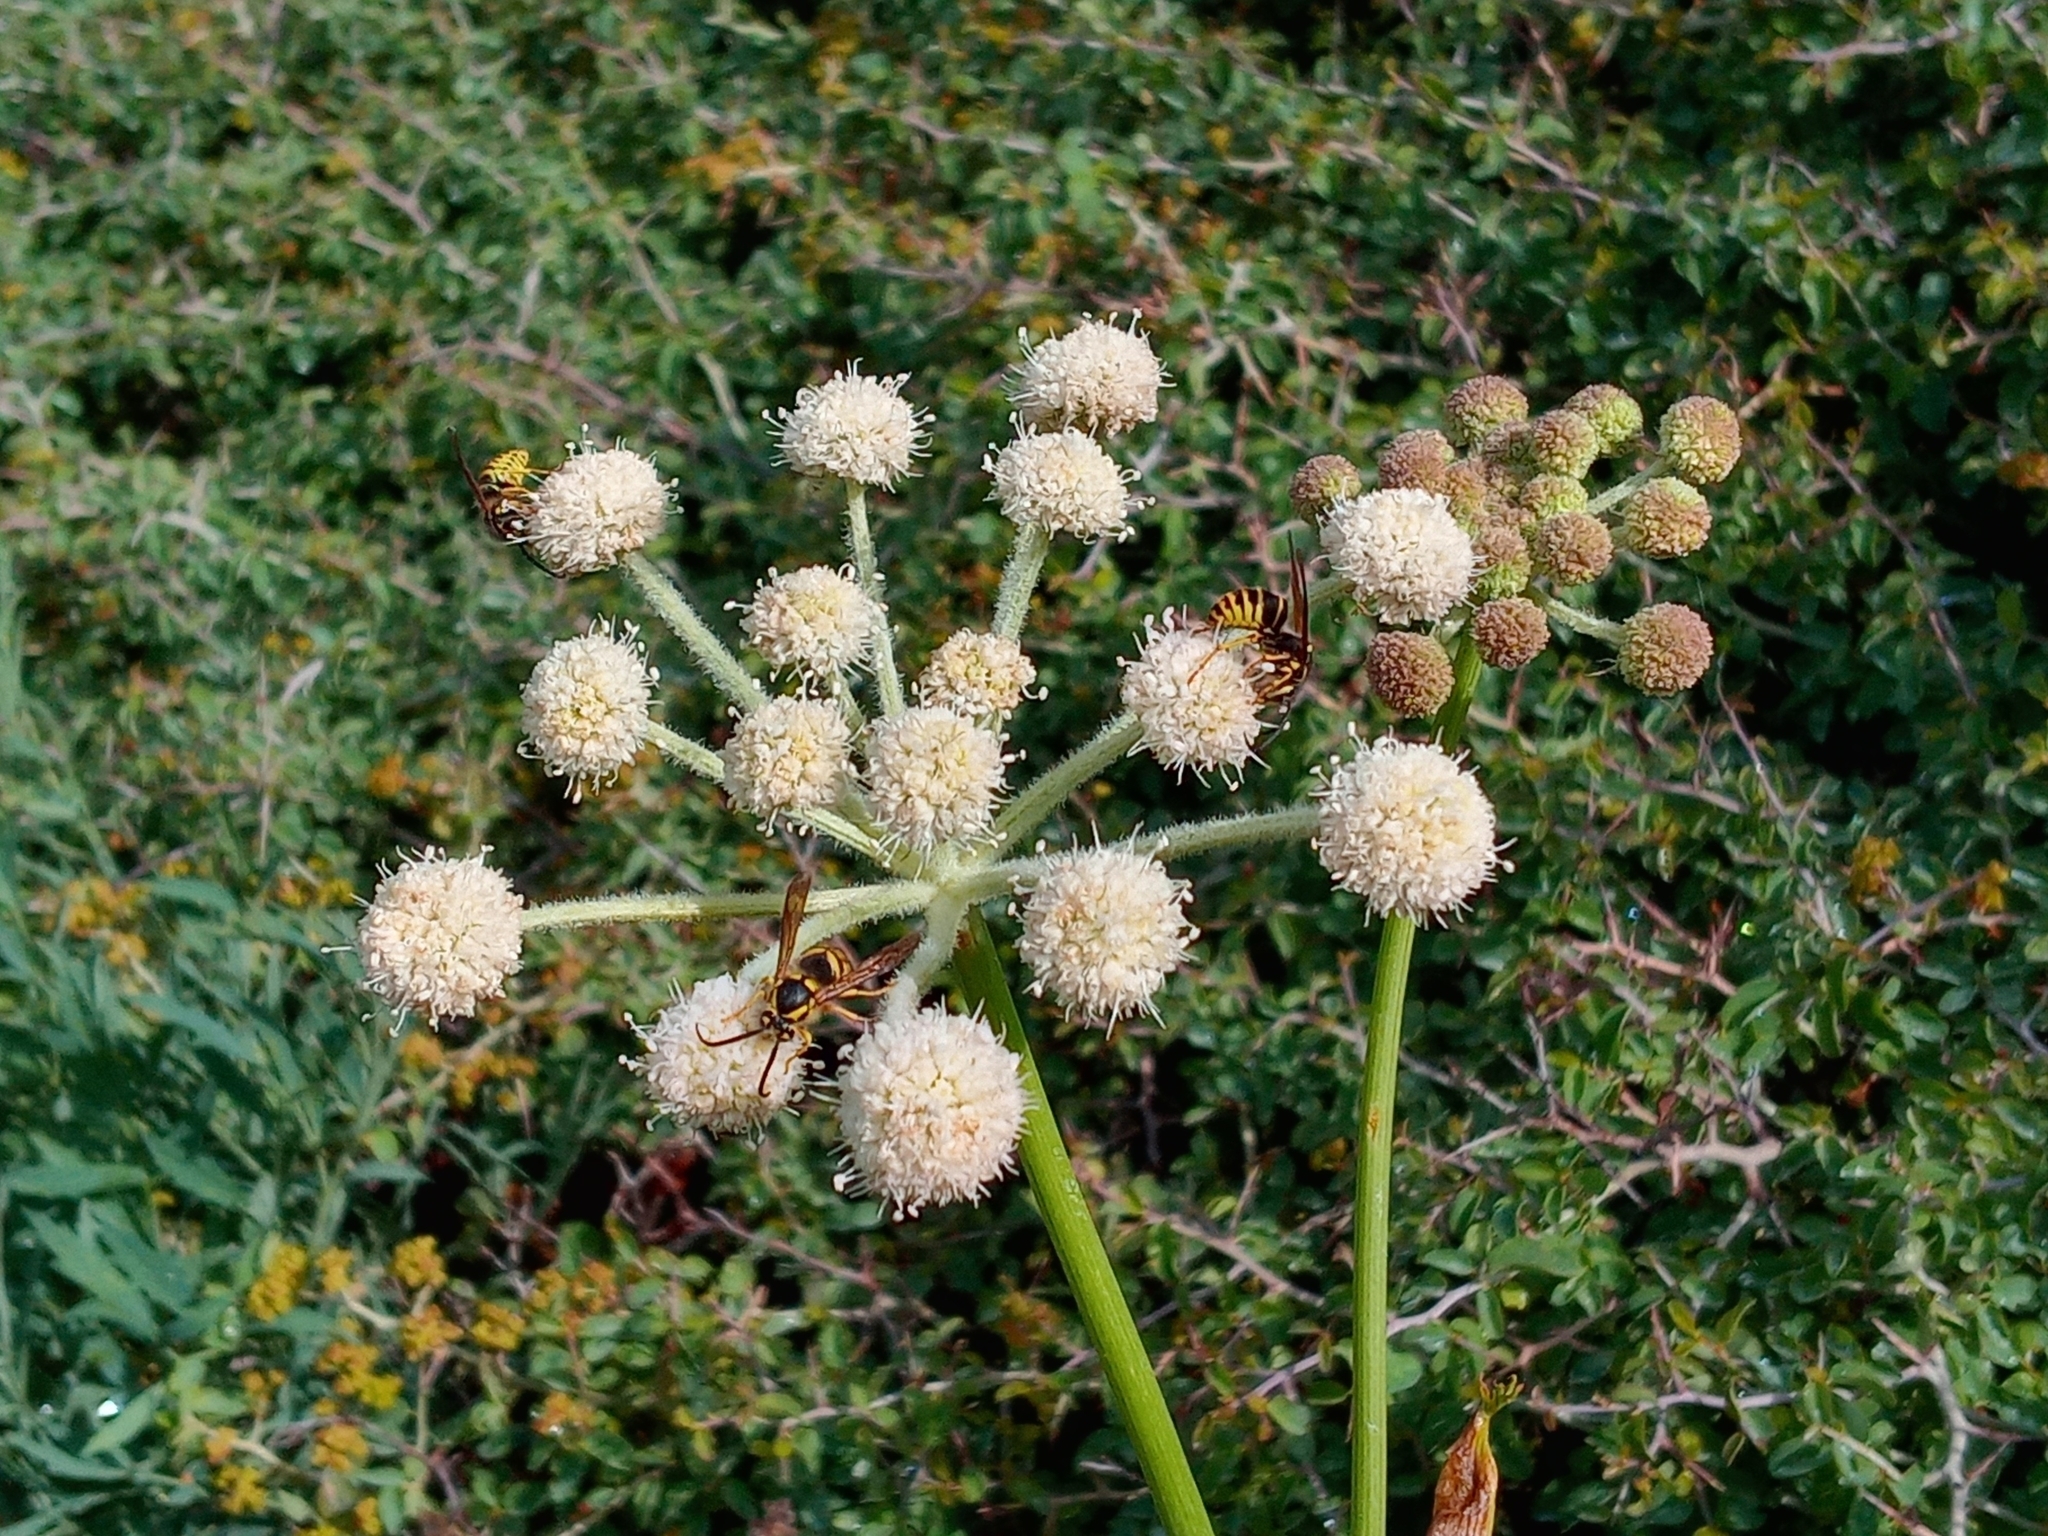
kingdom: Animalia
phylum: Arthropoda
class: Insecta
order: Hymenoptera
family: Vespidae
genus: Dolichovespula
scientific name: Dolichovespula norvegicoides
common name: Northern aerial yellowjacket
